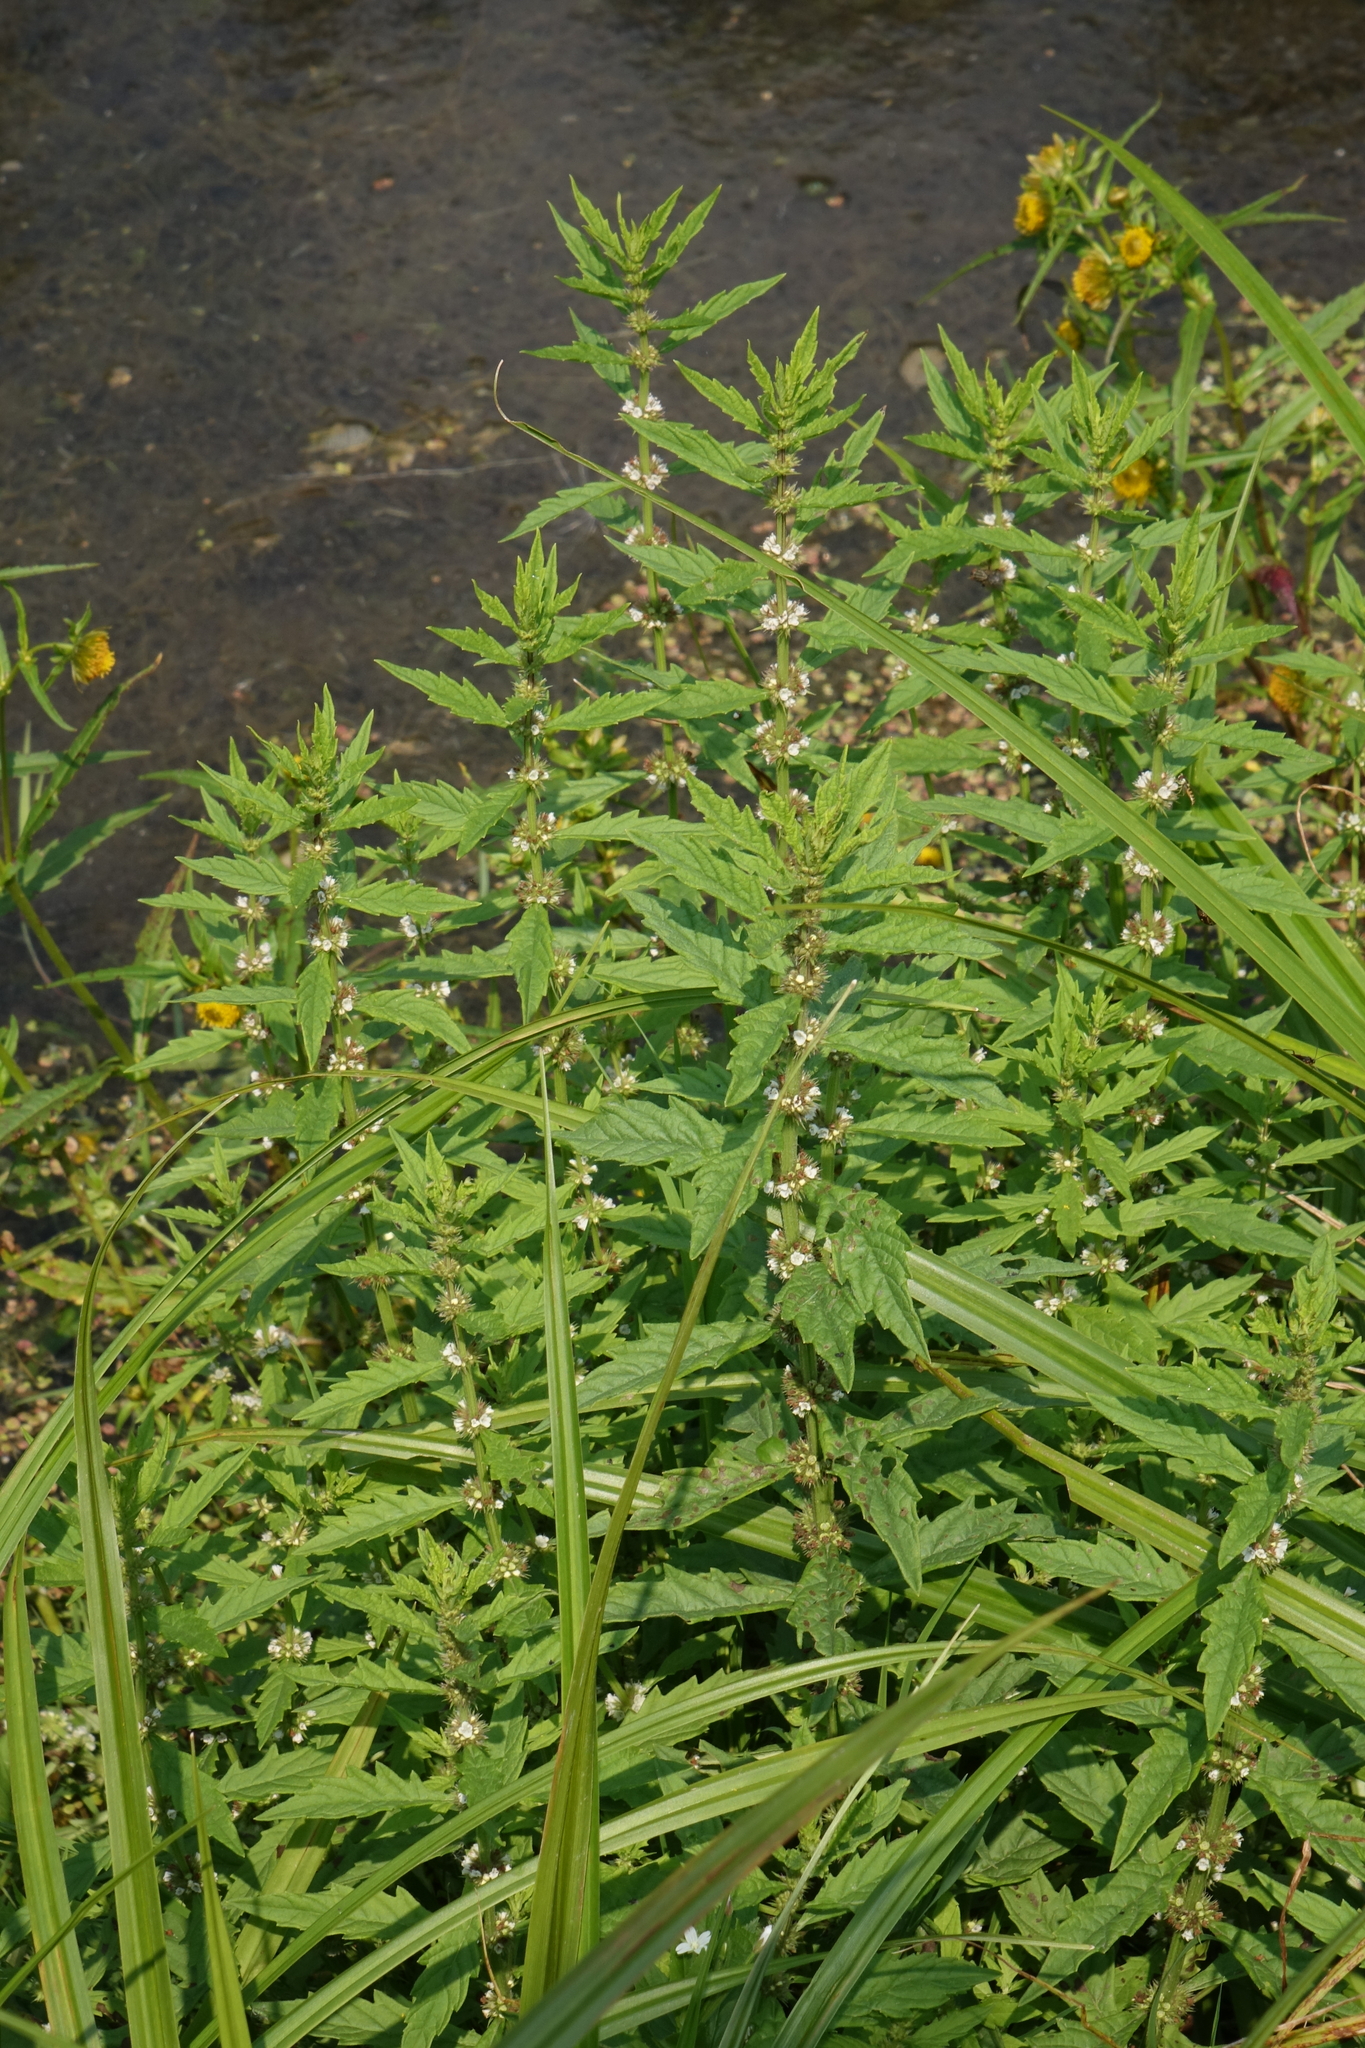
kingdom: Plantae
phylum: Tracheophyta
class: Magnoliopsida
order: Lamiales
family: Lamiaceae
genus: Lycopus
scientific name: Lycopus europaeus
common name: European bugleweed
